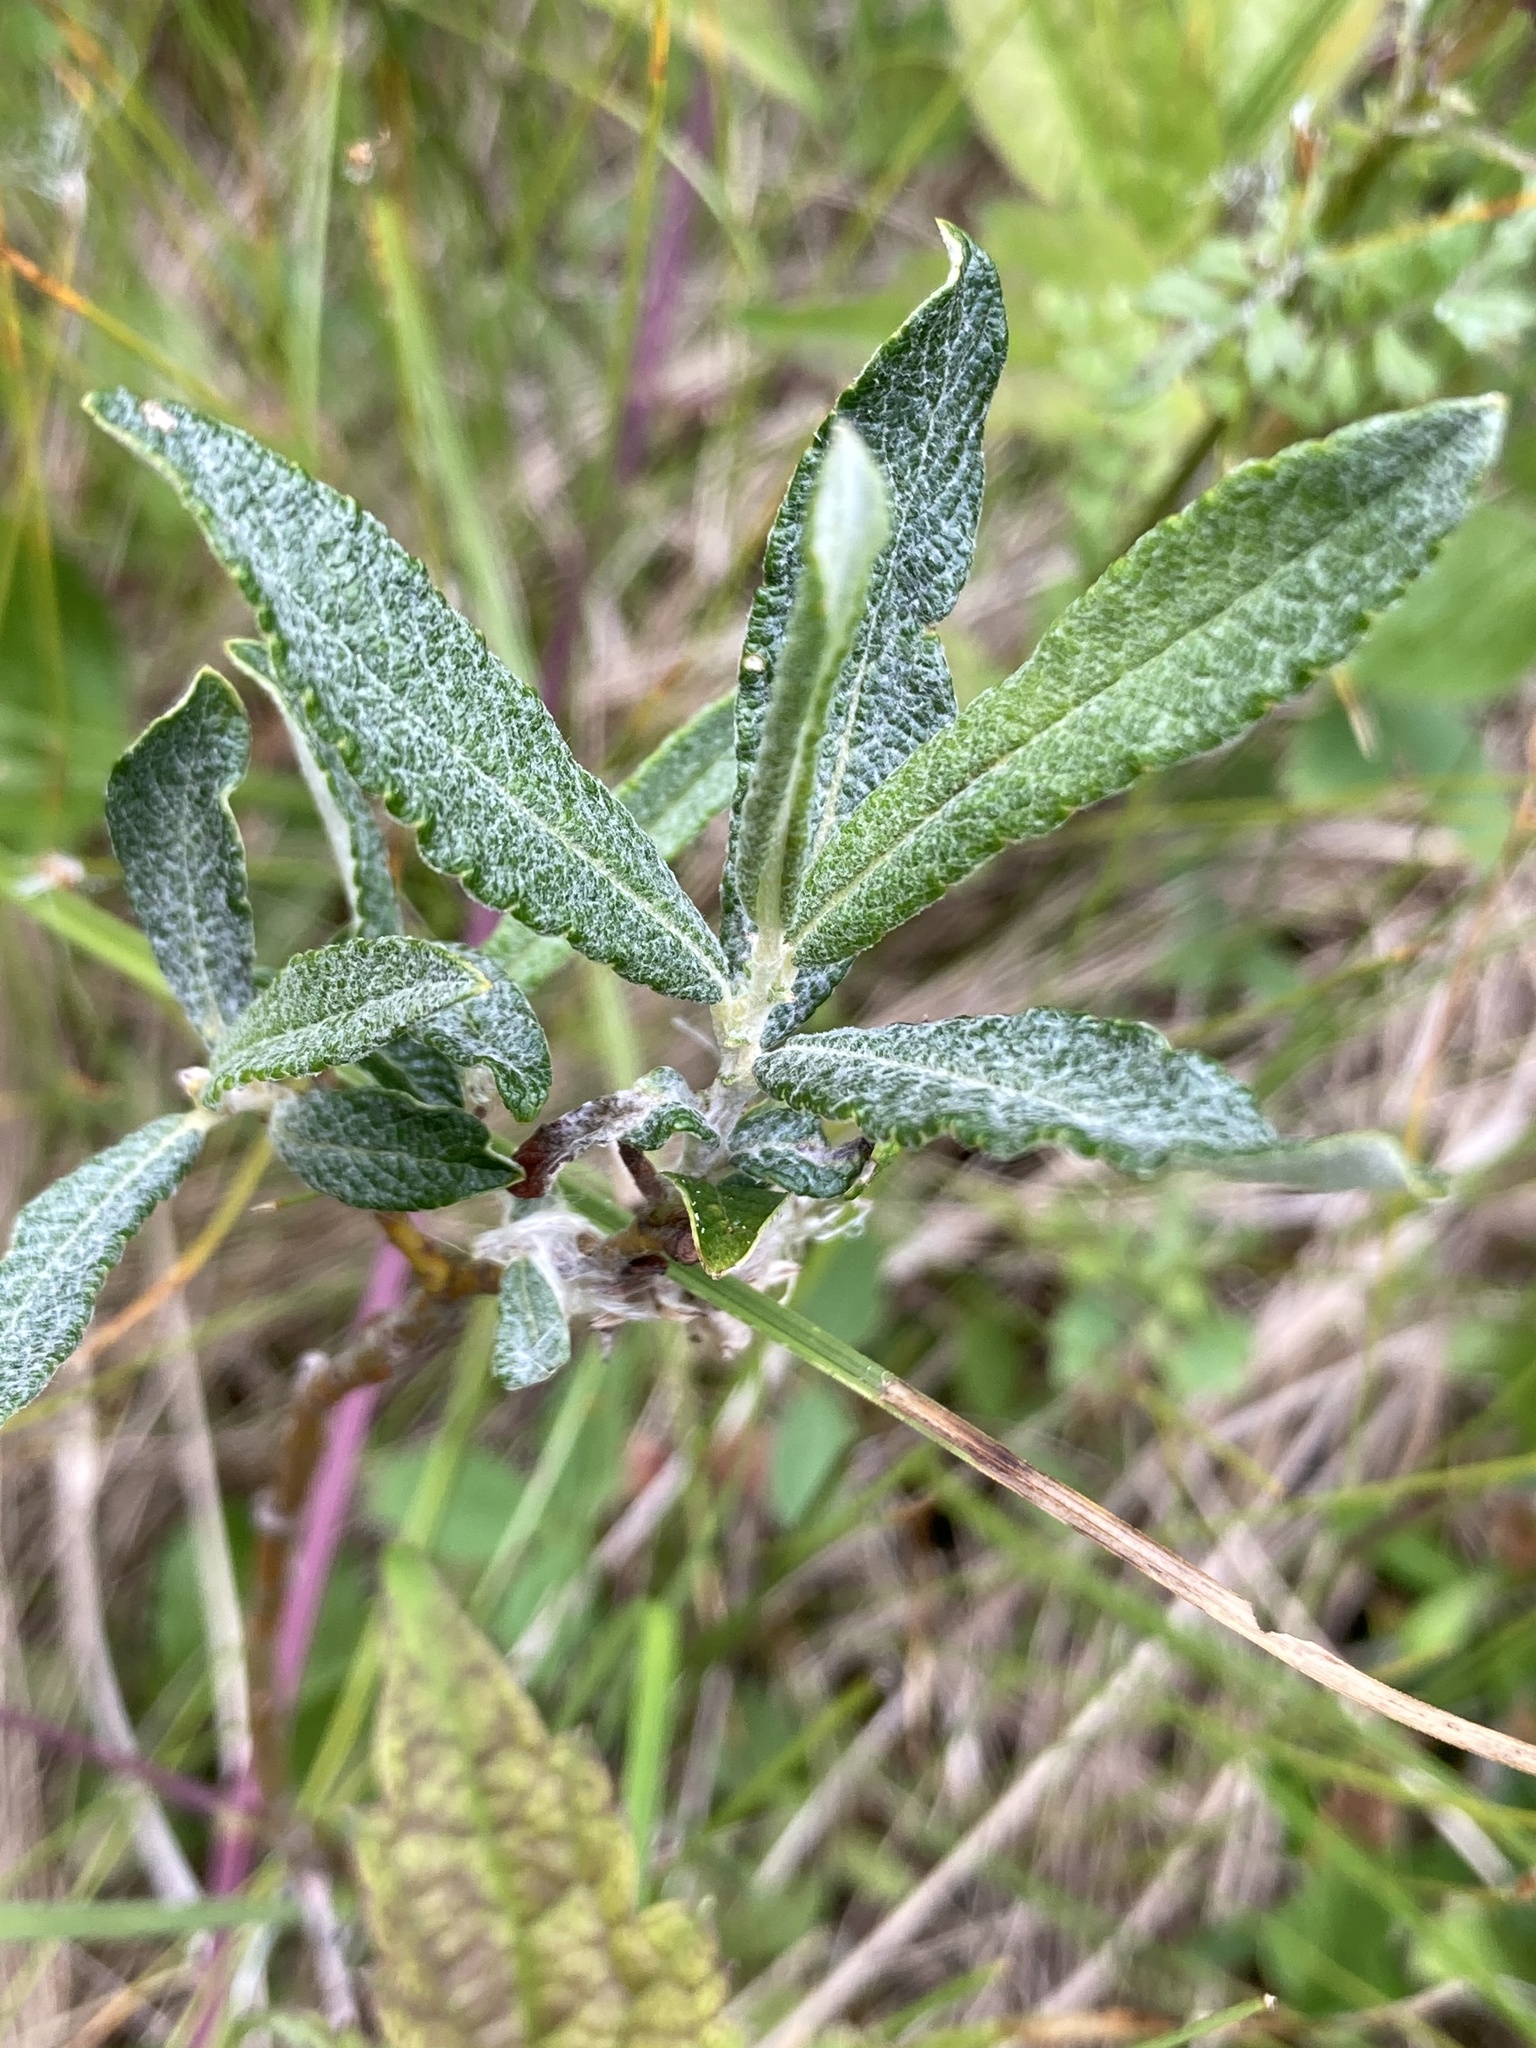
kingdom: Plantae
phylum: Tracheophyta
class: Magnoliopsida
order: Malpighiales
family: Salicaceae
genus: Salix
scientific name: Salix candida
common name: Hoary willow
